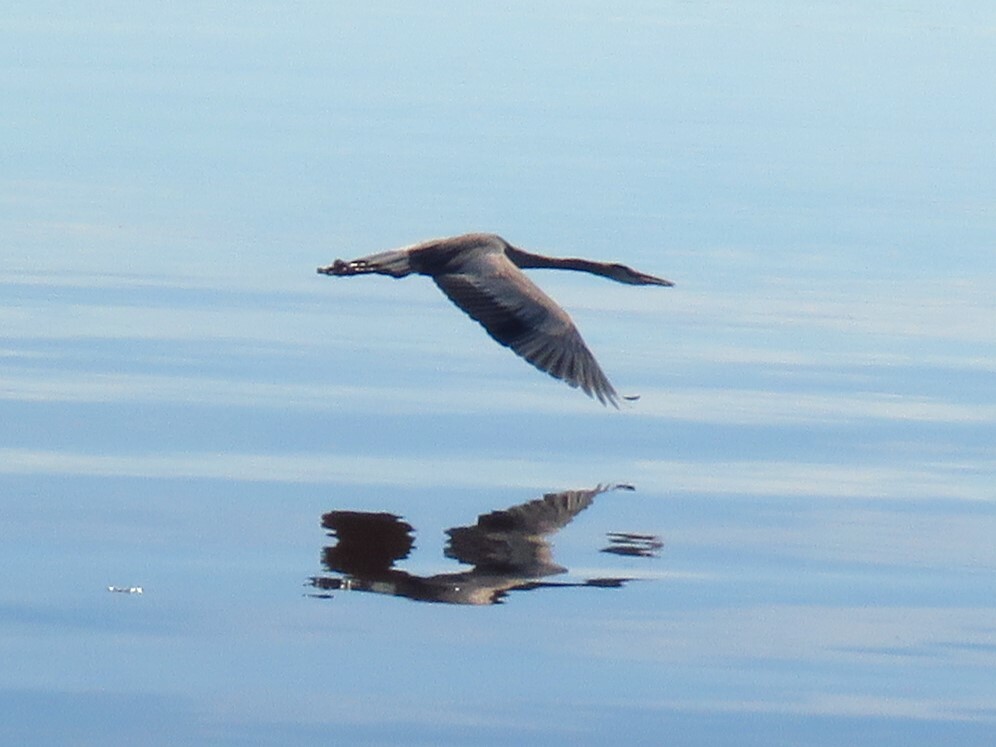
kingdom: Animalia
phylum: Chordata
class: Aves
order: Pelecaniformes
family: Ardeidae
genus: Ardea
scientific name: Ardea herodias
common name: Great blue heron
